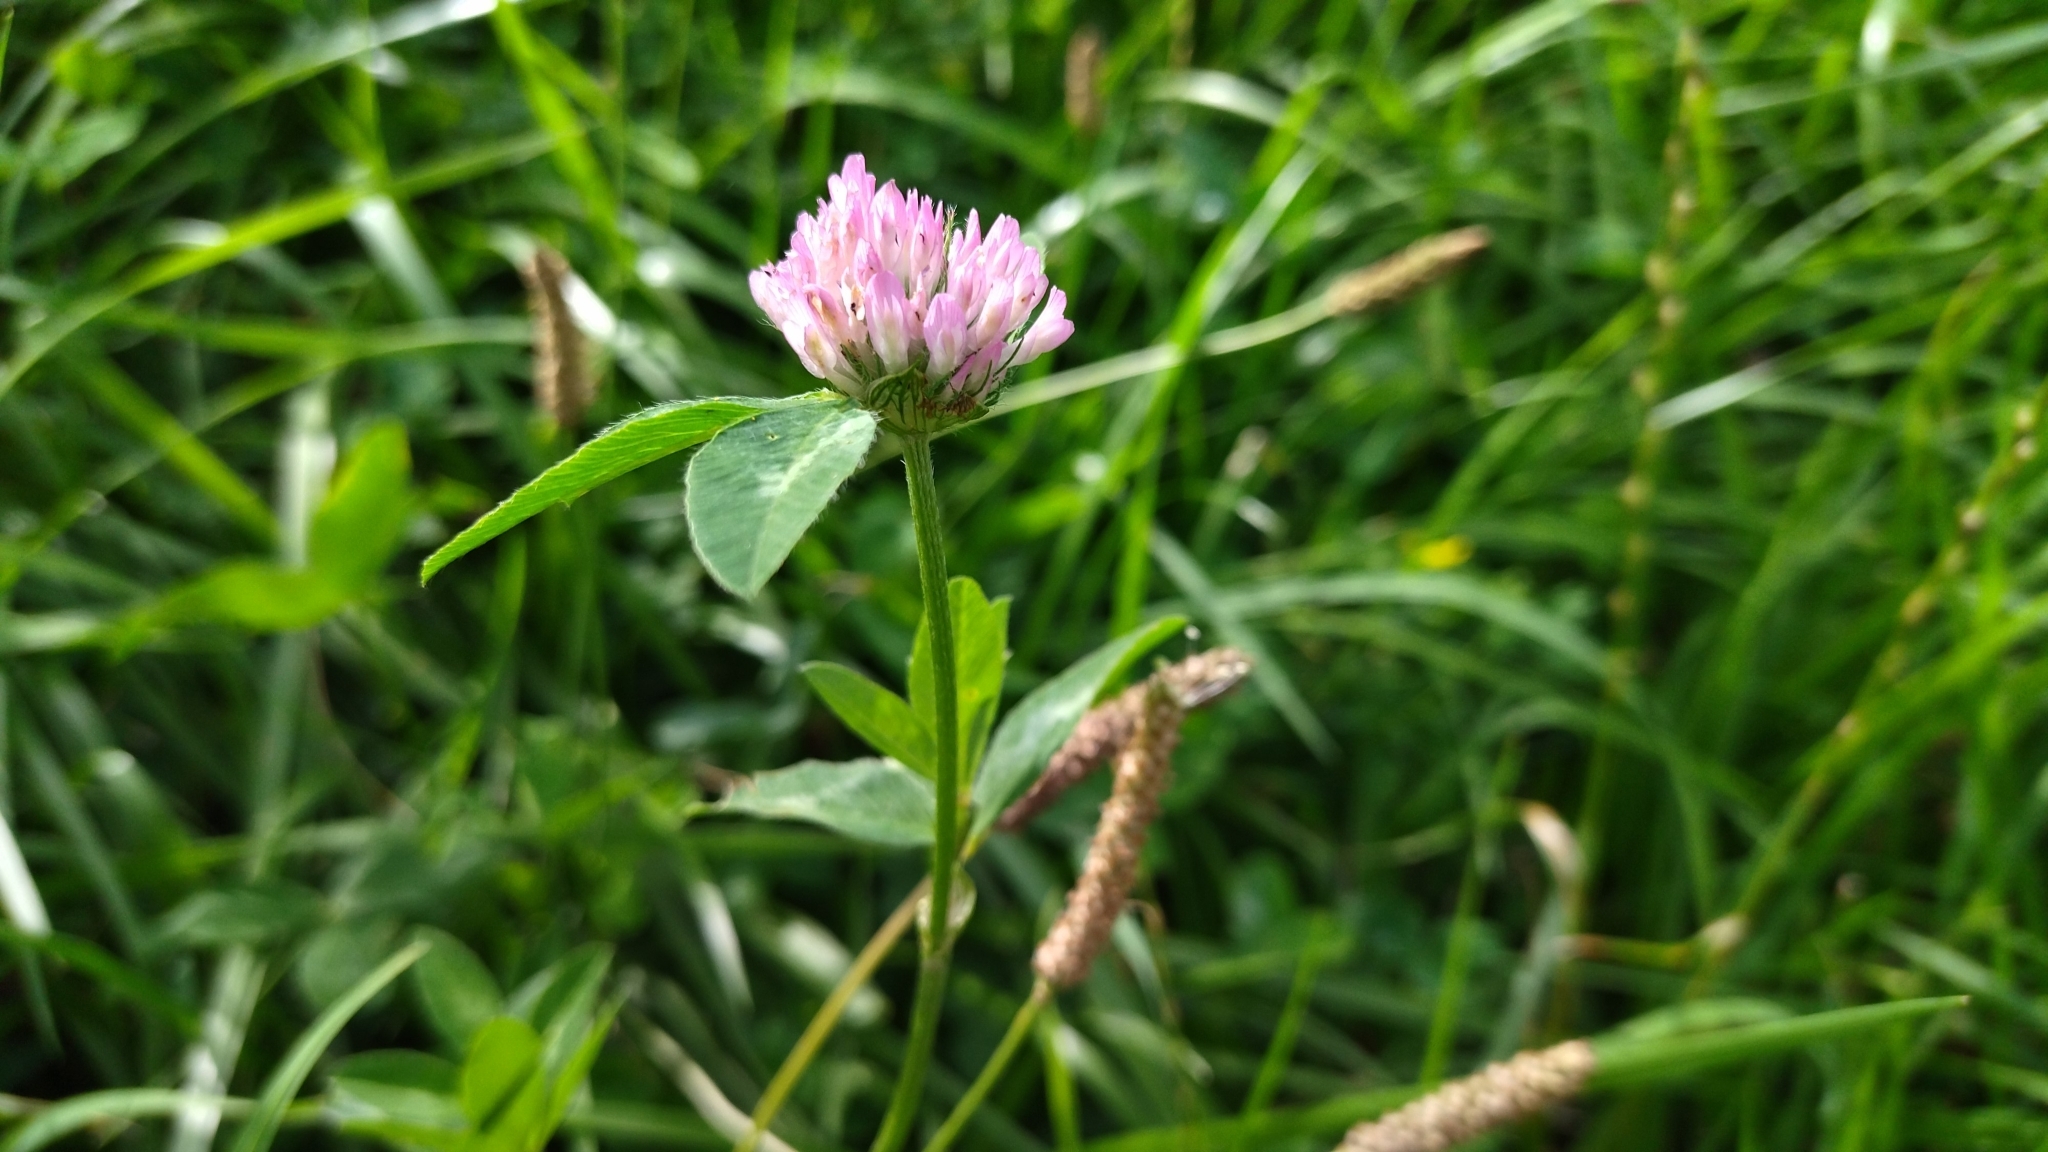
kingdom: Plantae
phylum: Tracheophyta
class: Magnoliopsida
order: Fabales
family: Fabaceae
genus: Trifolium
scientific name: Trifolium pratense
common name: Red clover
